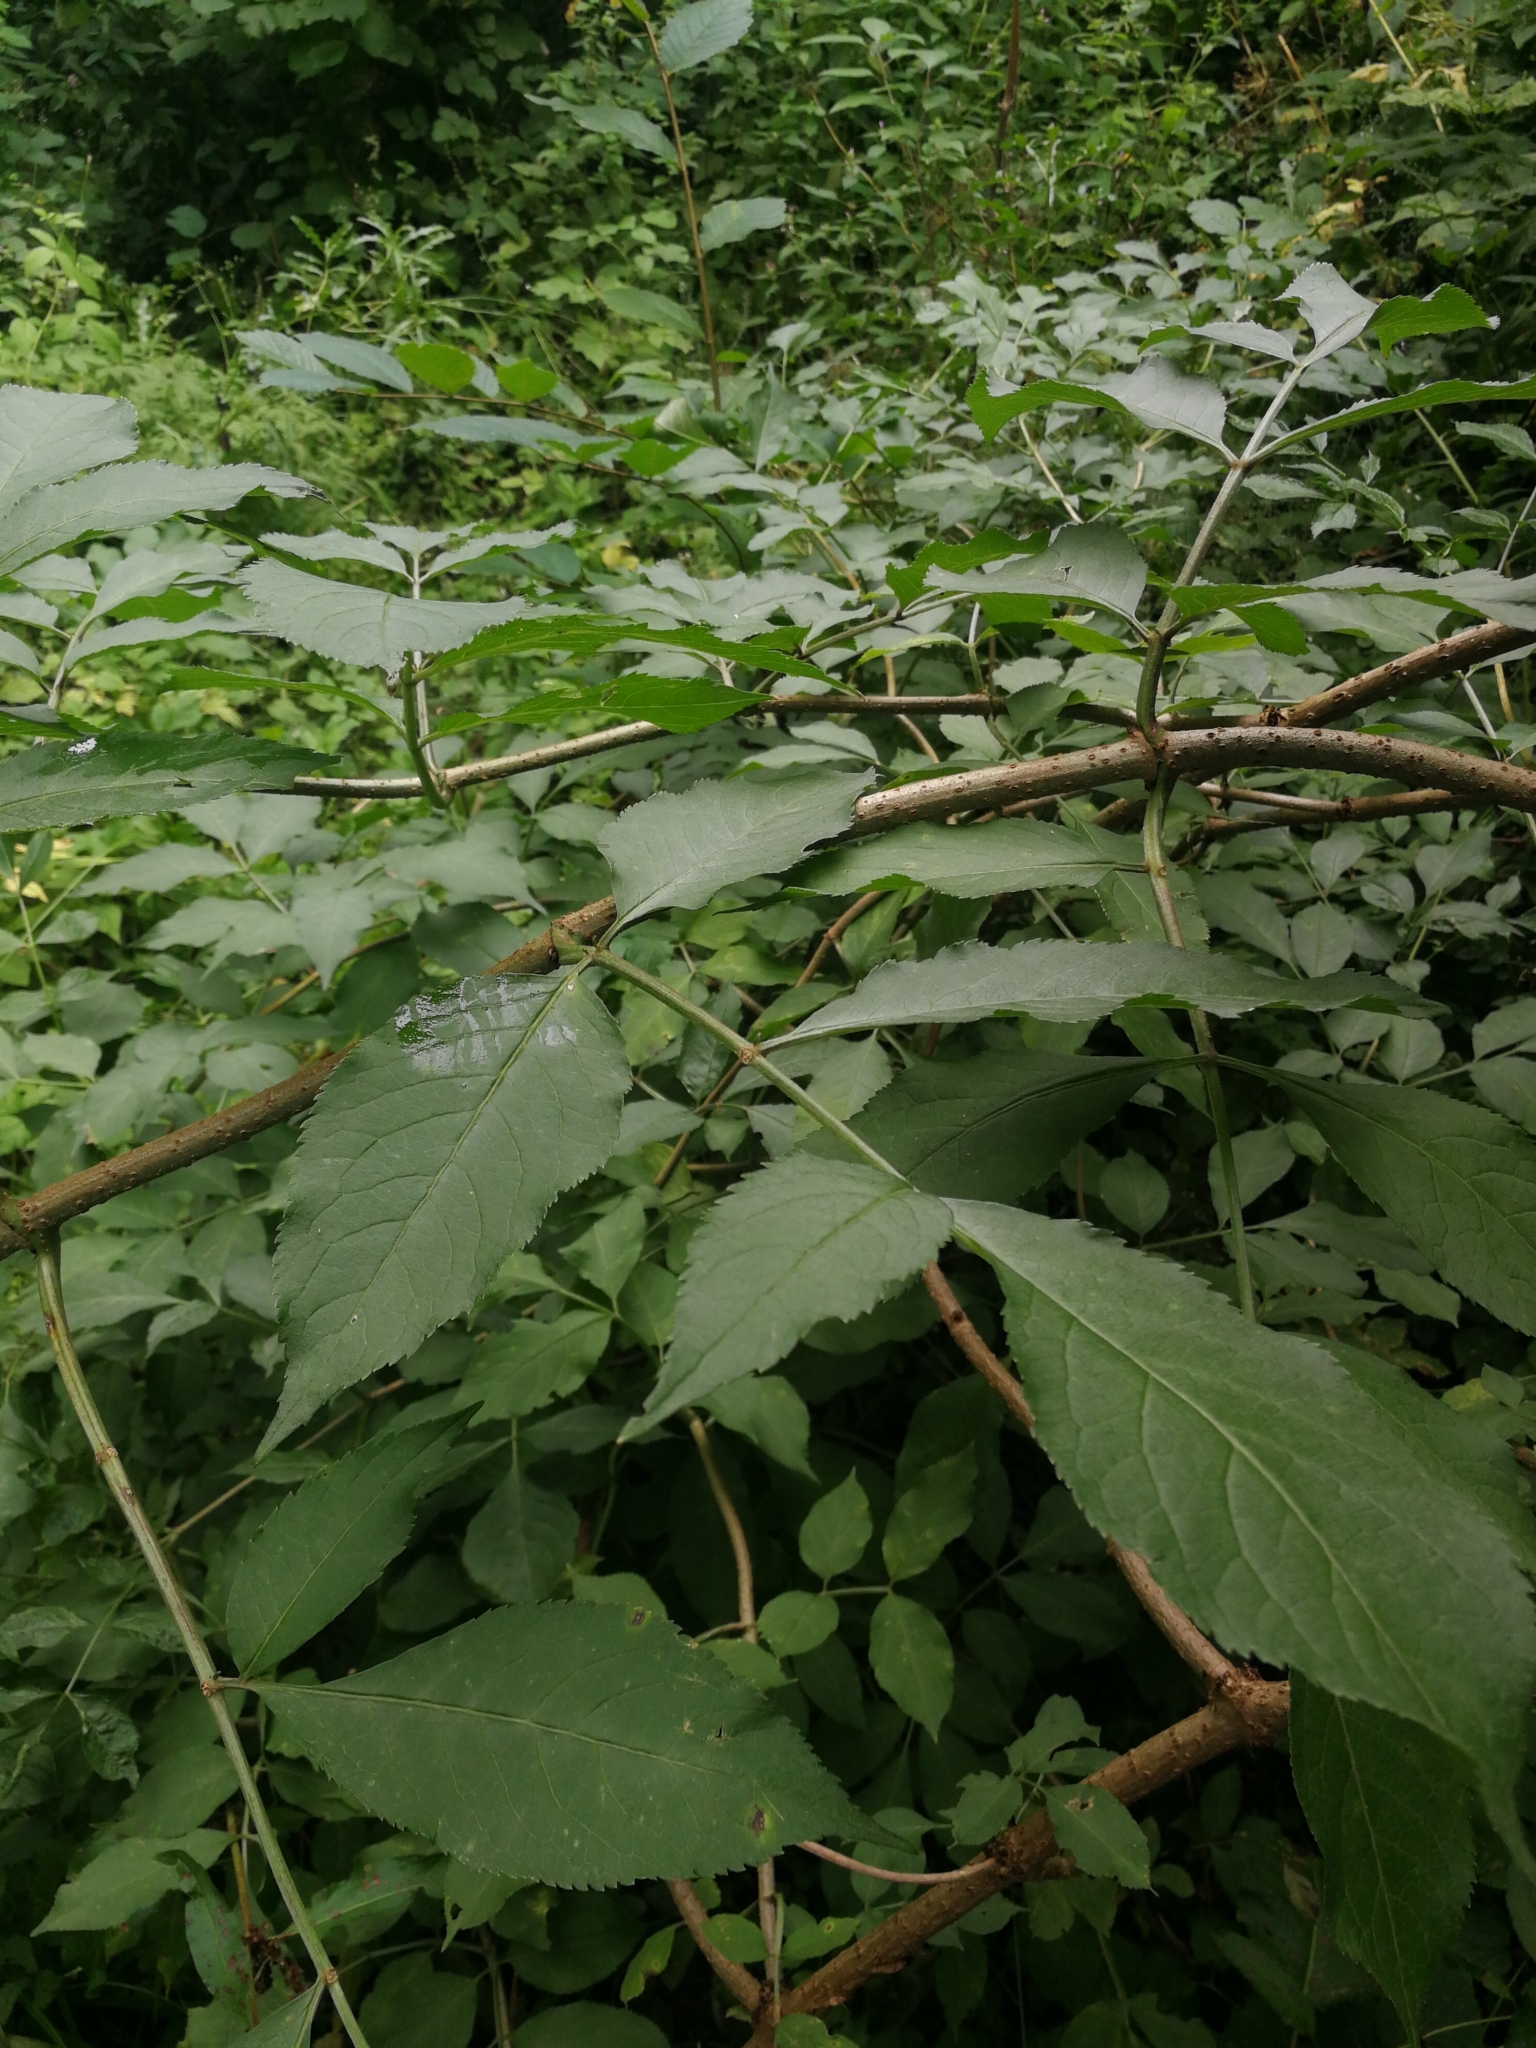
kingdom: Plantae
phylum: Tracheophyta
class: Magnoliopsida
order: Dipsacales
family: Viburnaceae
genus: Sambucus
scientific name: Sambucus nigra
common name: Elder
